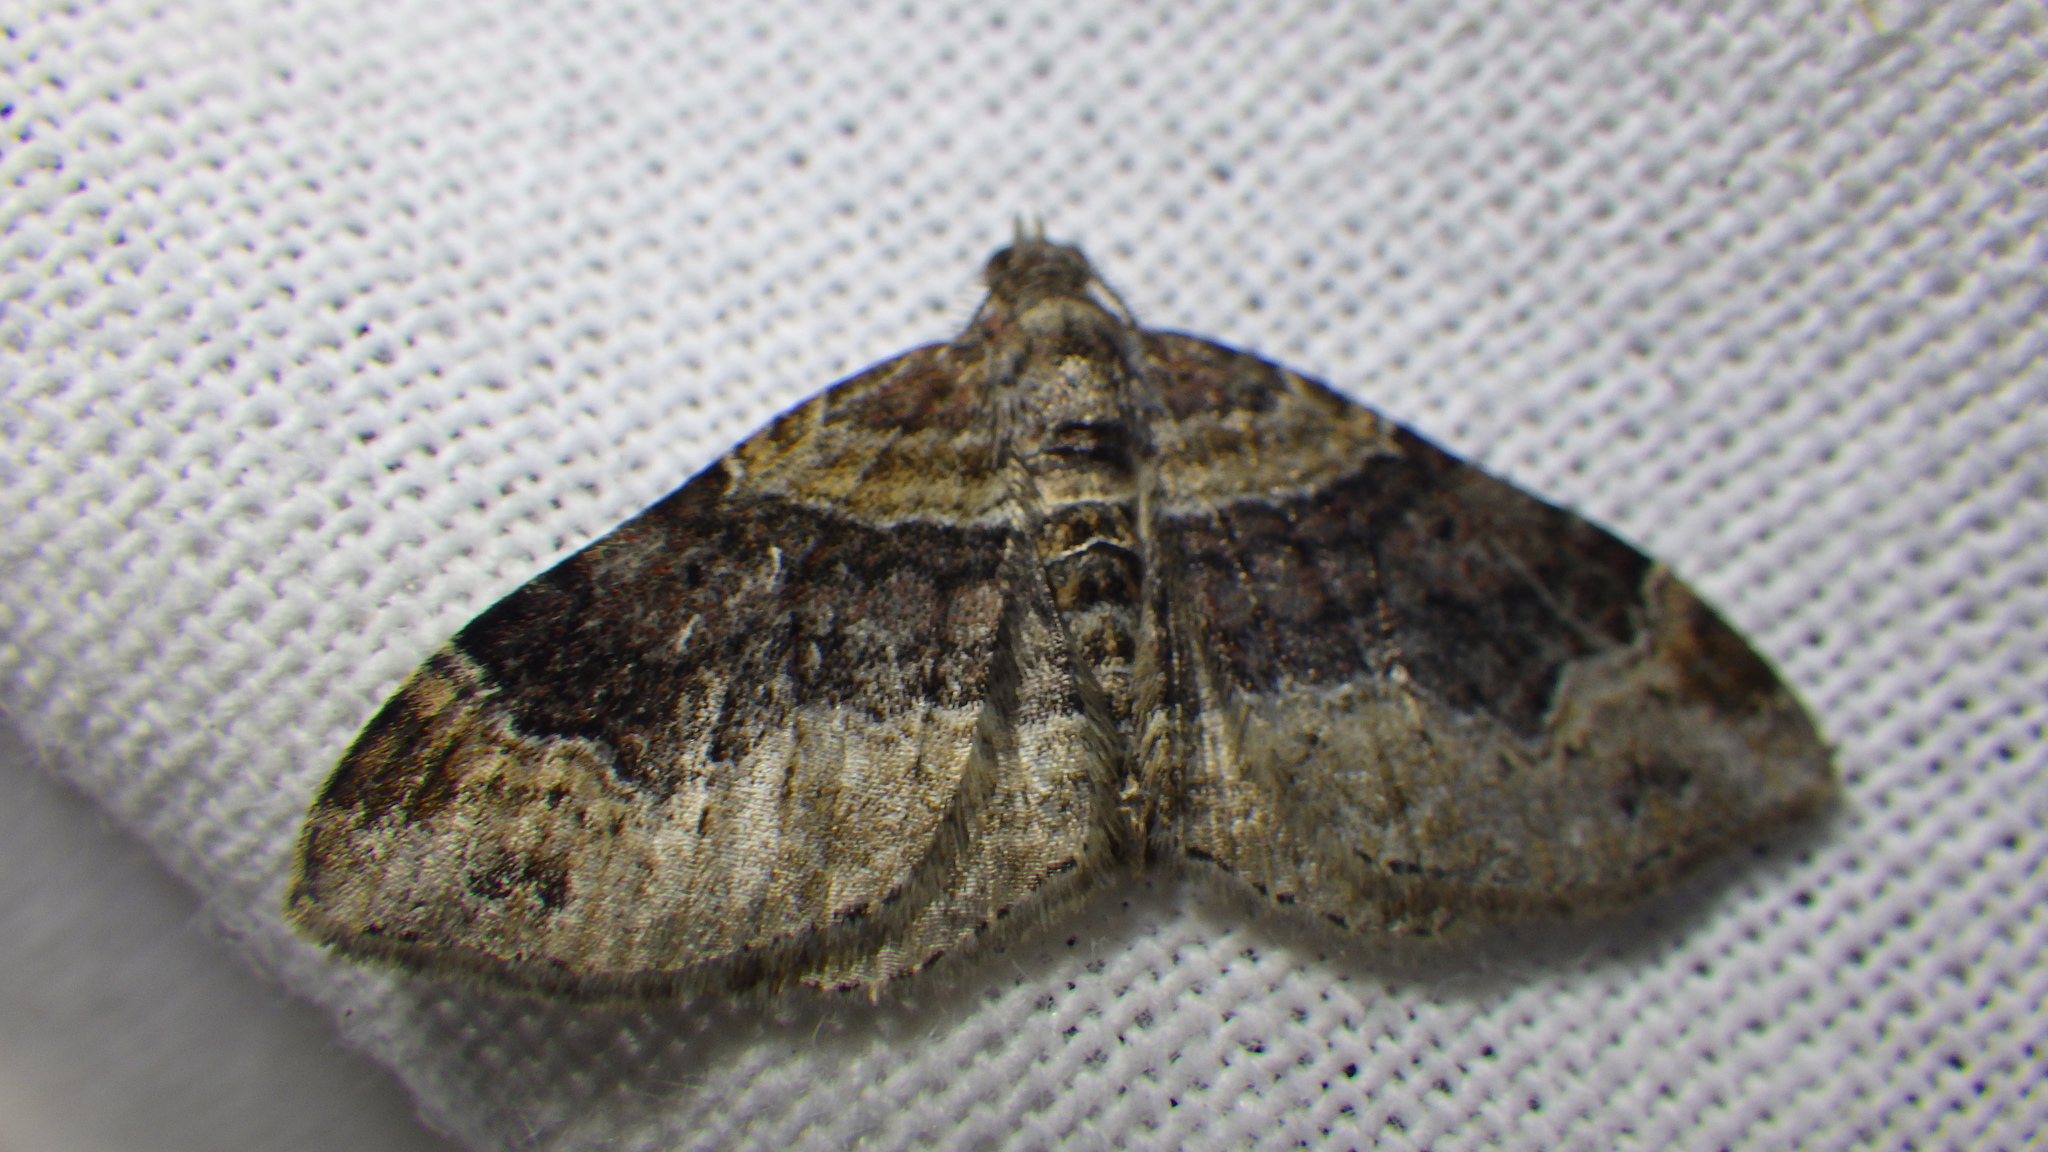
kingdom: Animalia
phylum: Arthropoda
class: Insecta
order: Lepidoptera
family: Geometridae
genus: Xanthorhoe
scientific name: Xanthorhoe ferrugata
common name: Dark-barred twin-spot carpet
